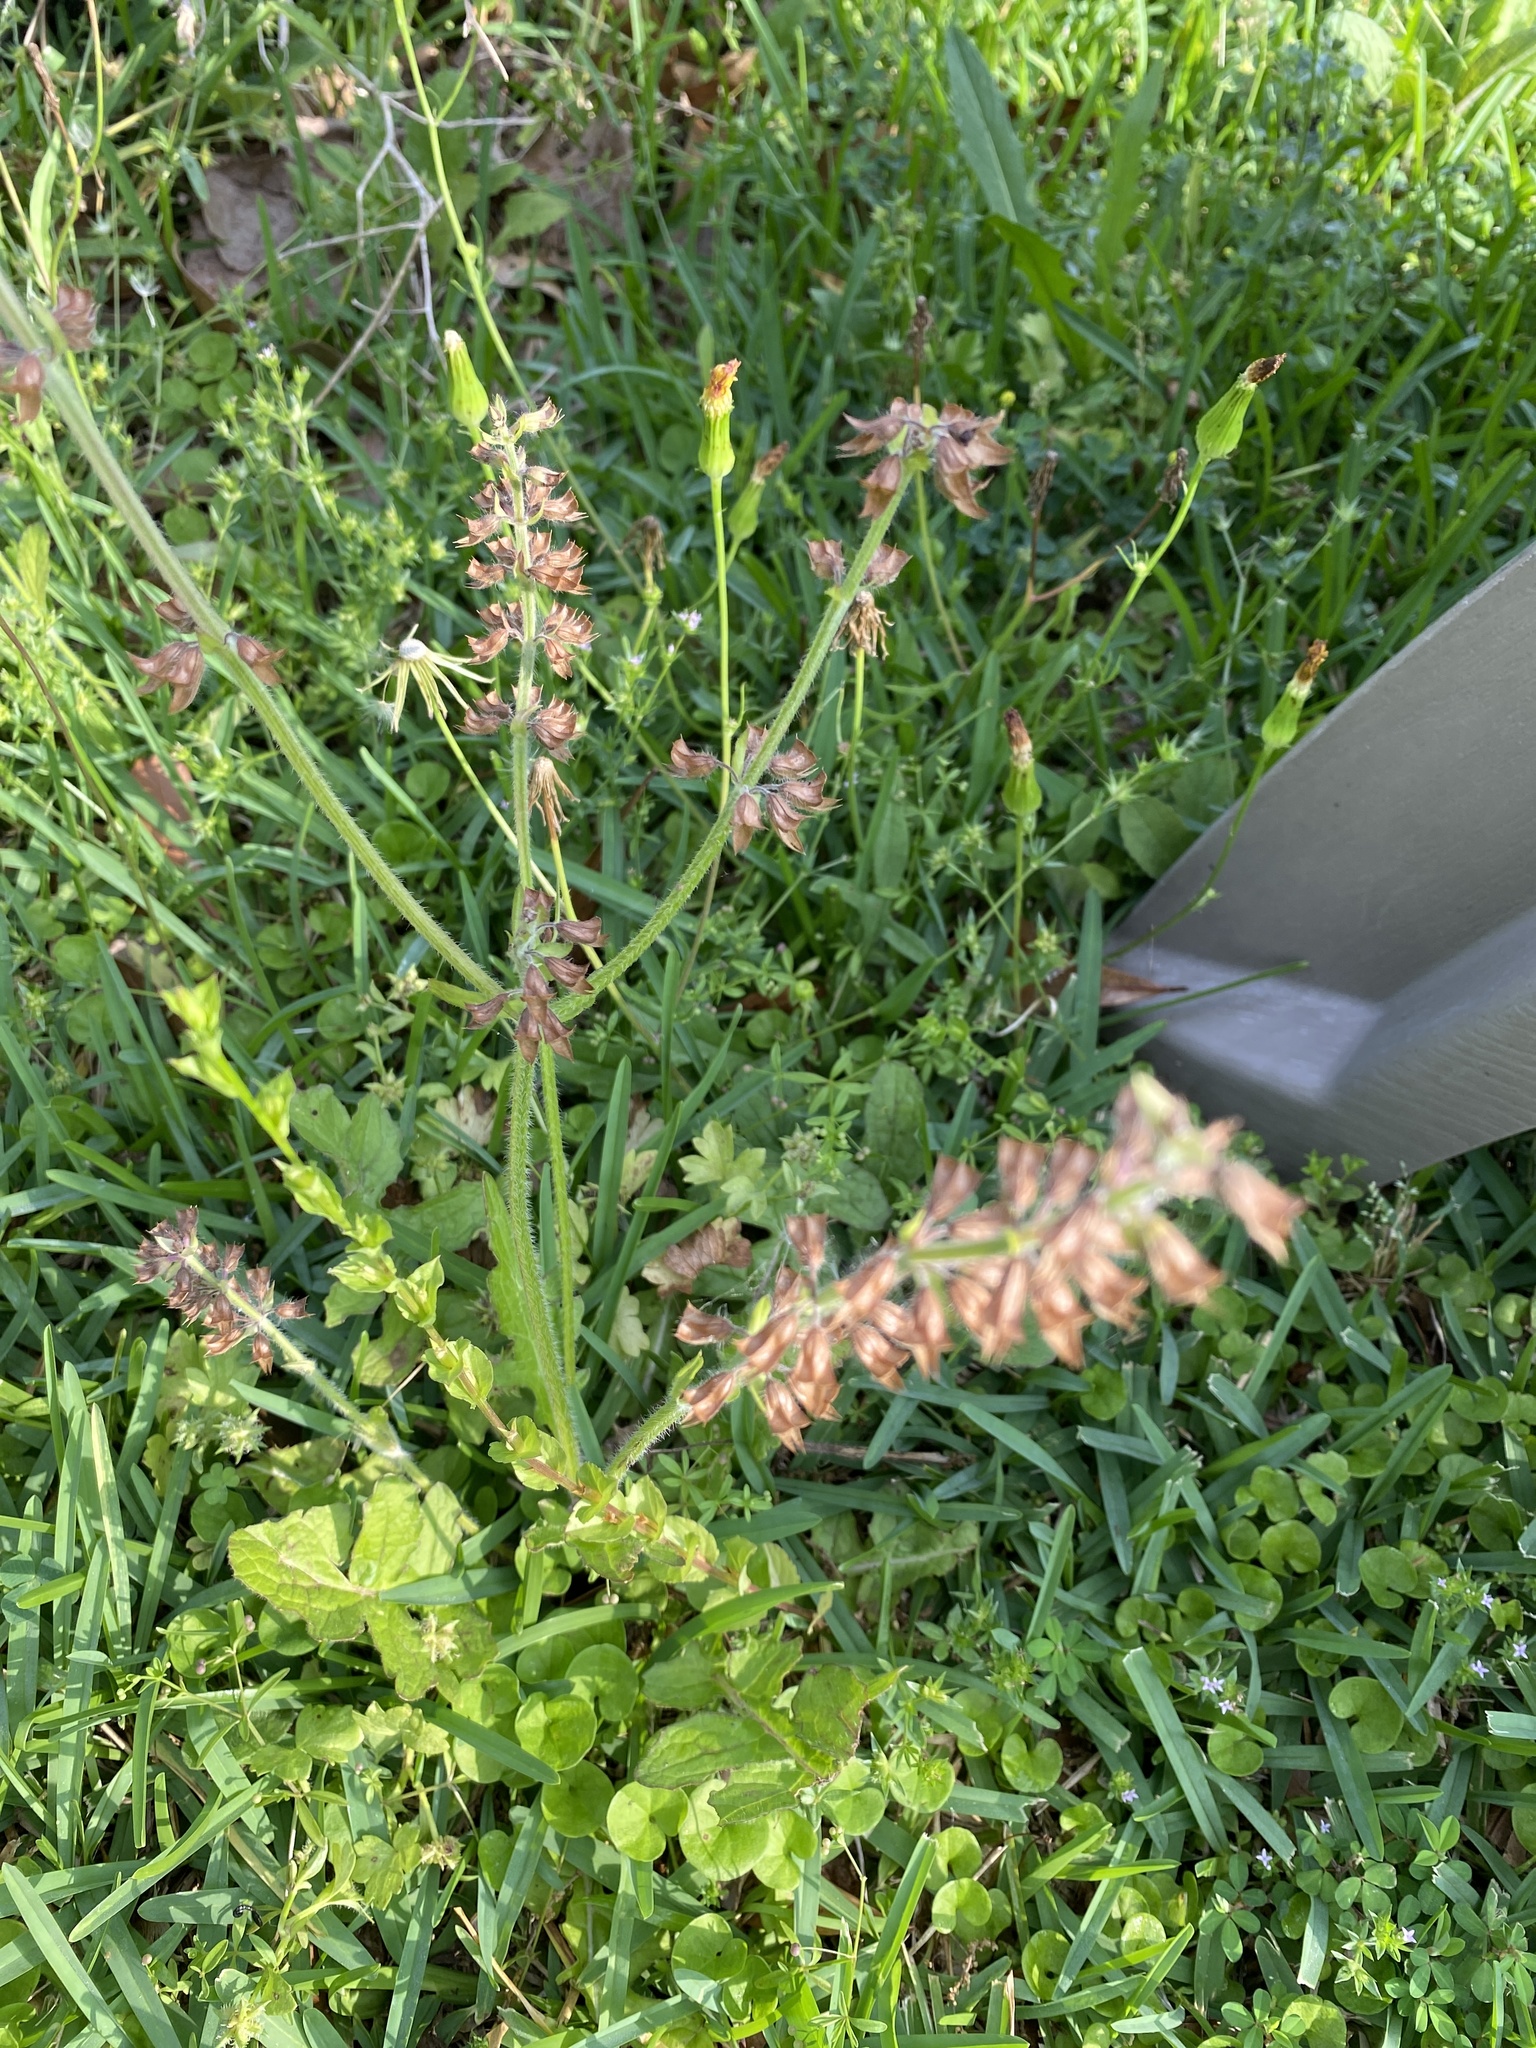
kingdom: Plantae
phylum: Tracheophyta
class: Magnoliopsida
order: Lamiales
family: Lamiaceae
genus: Salvia
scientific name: Salvia lyrata
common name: Cancerweed
